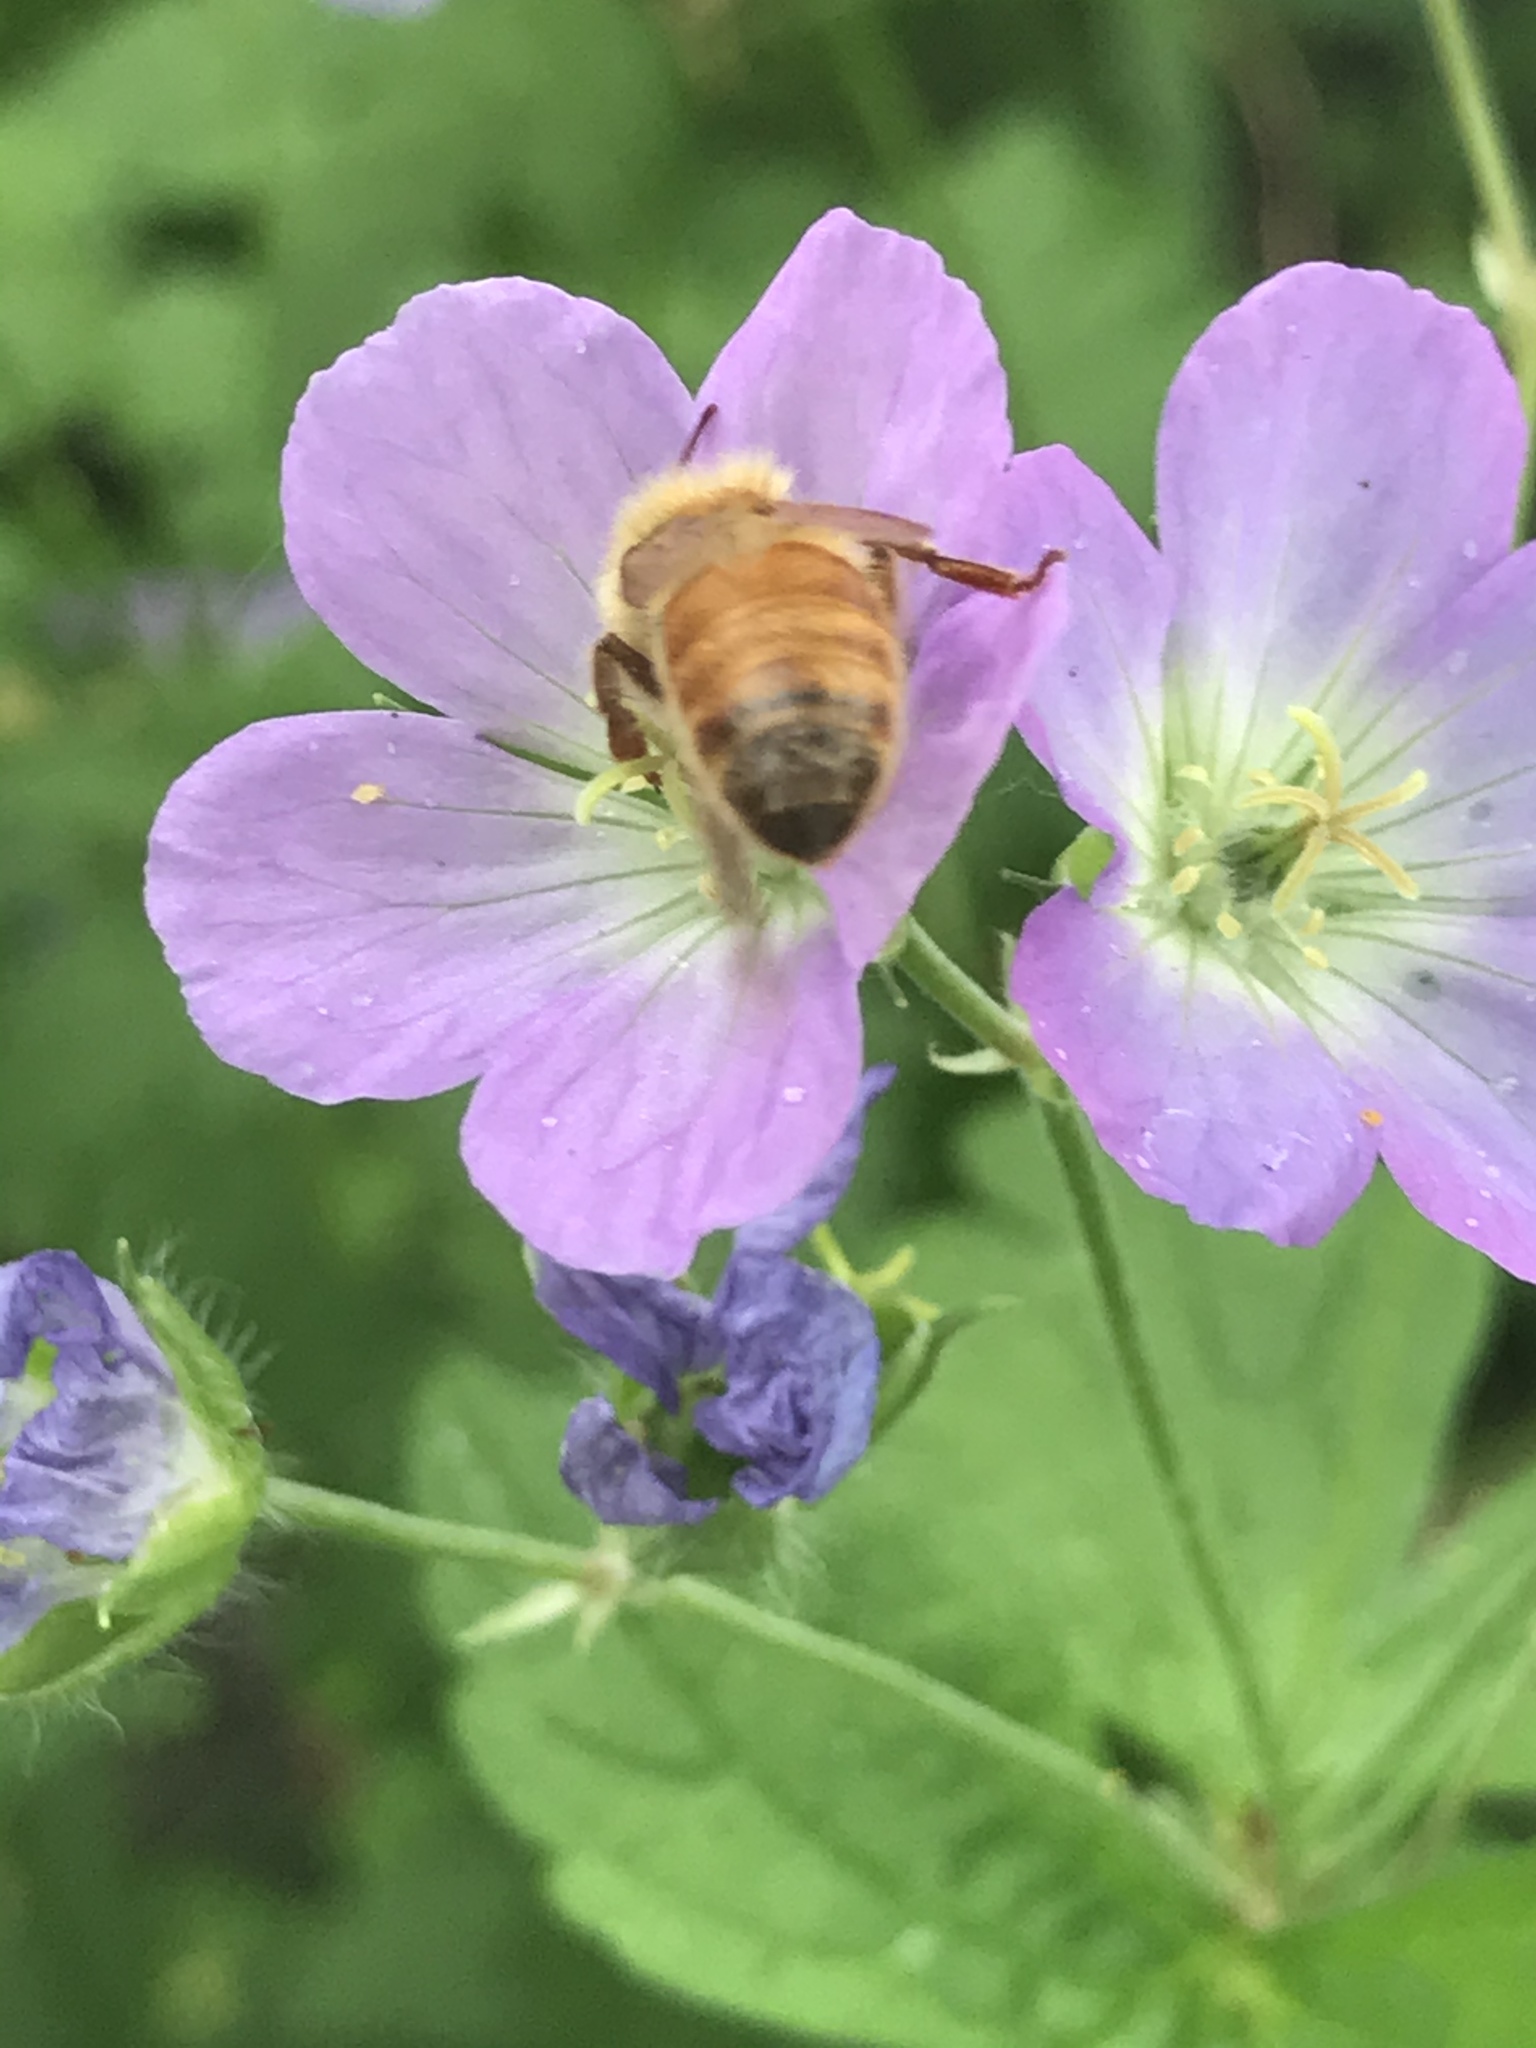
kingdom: Animalia
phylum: Arthropoda
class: Insecta
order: Hymenoptera
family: Apidae
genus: Apis
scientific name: Apis mellifera
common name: Honey bee
